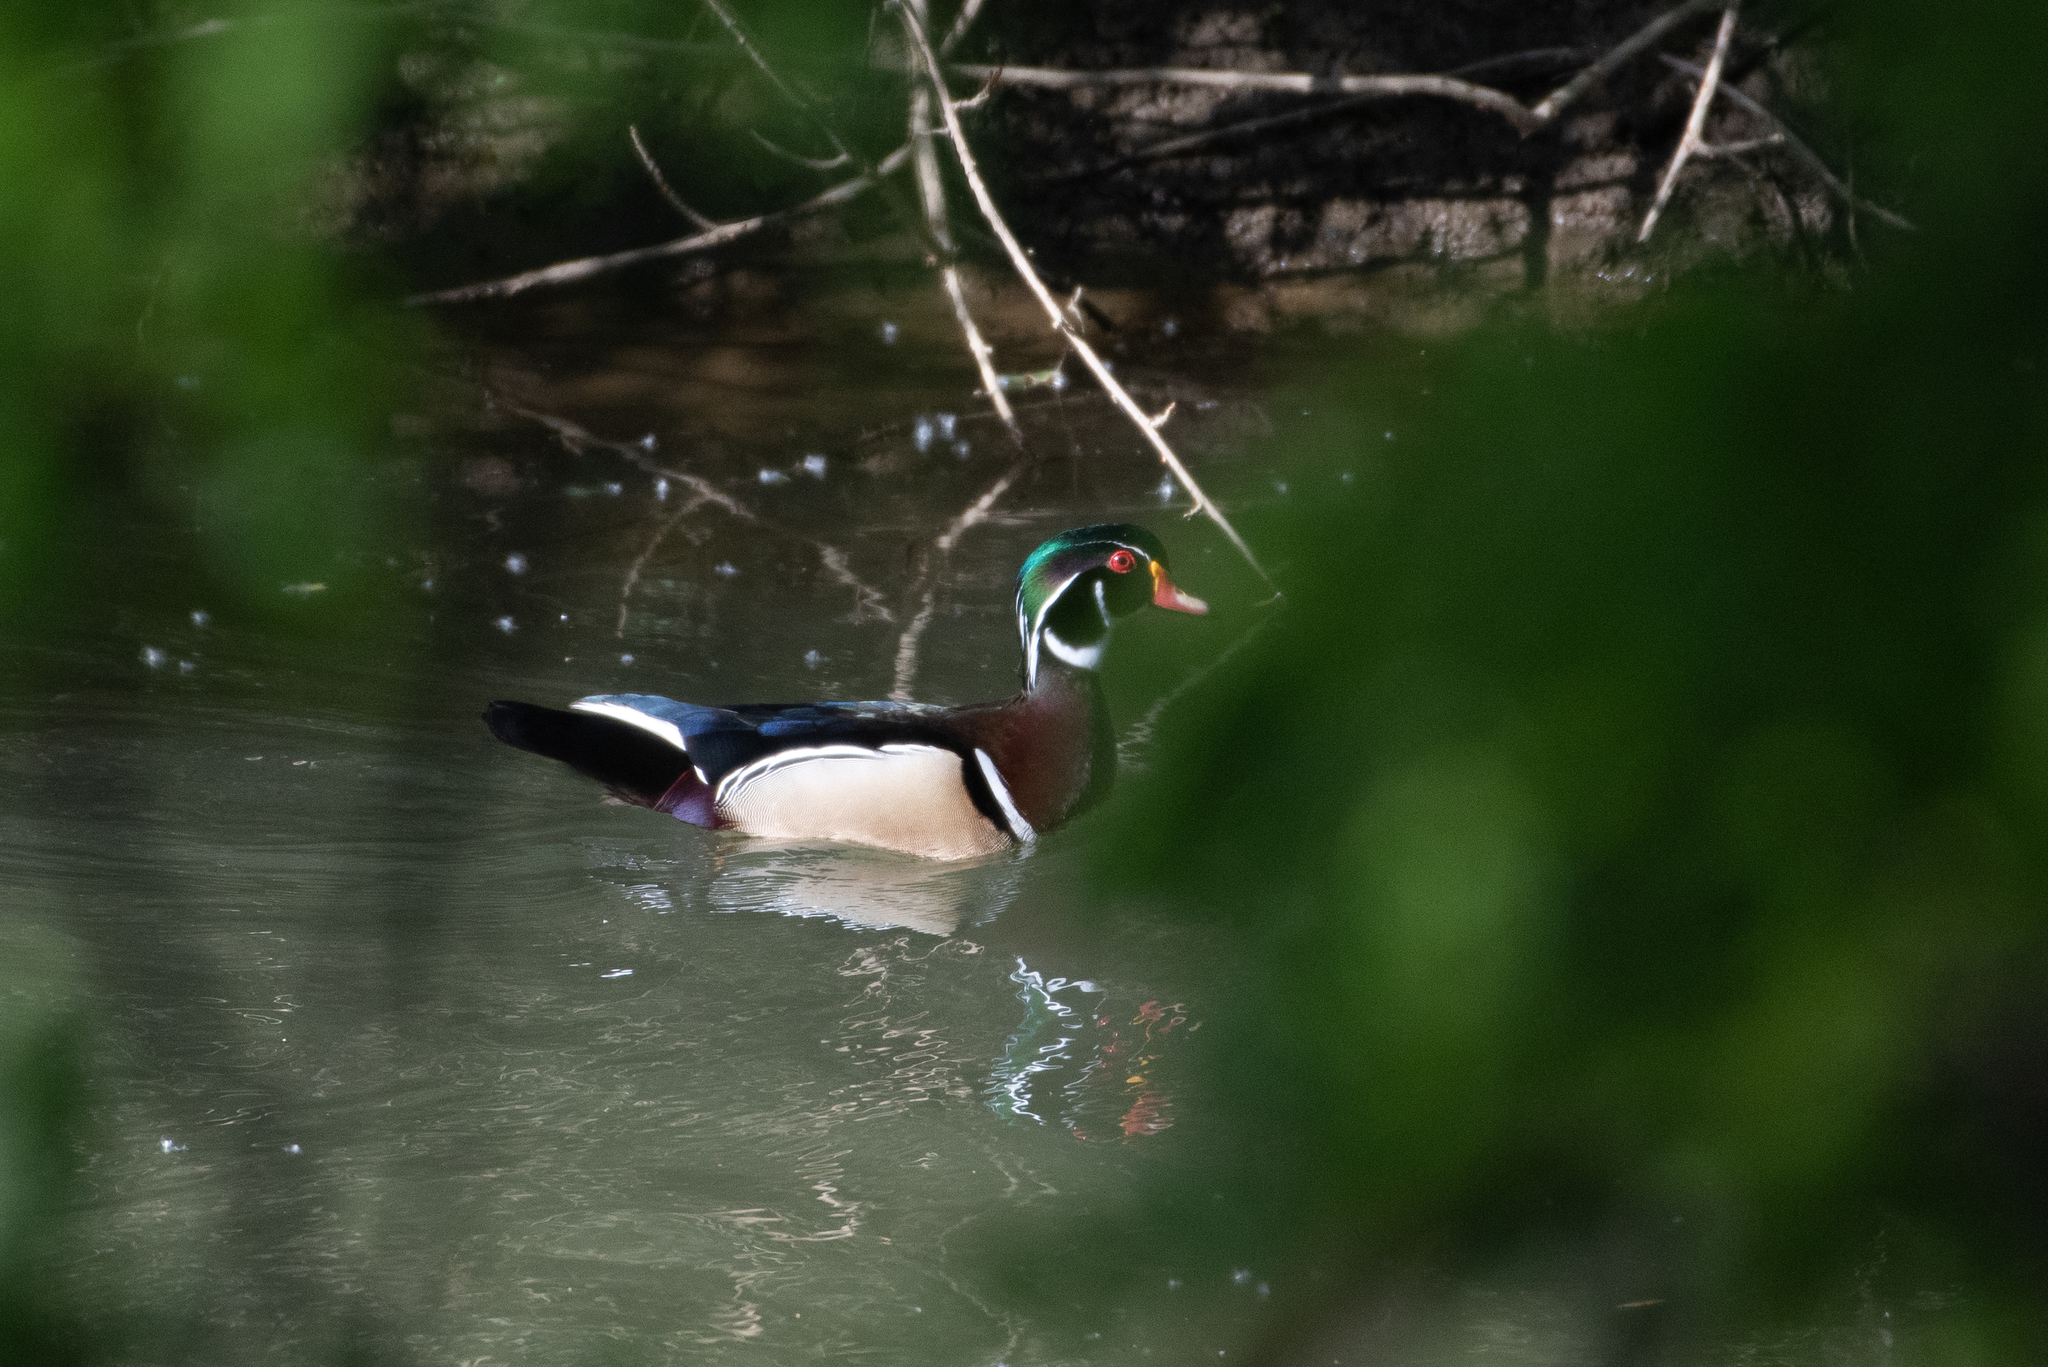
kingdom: Animalia
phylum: Chordata
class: Aves
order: Anseriformes
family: Anatidae
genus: Aix
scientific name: Aix sponsa
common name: Wood duck
